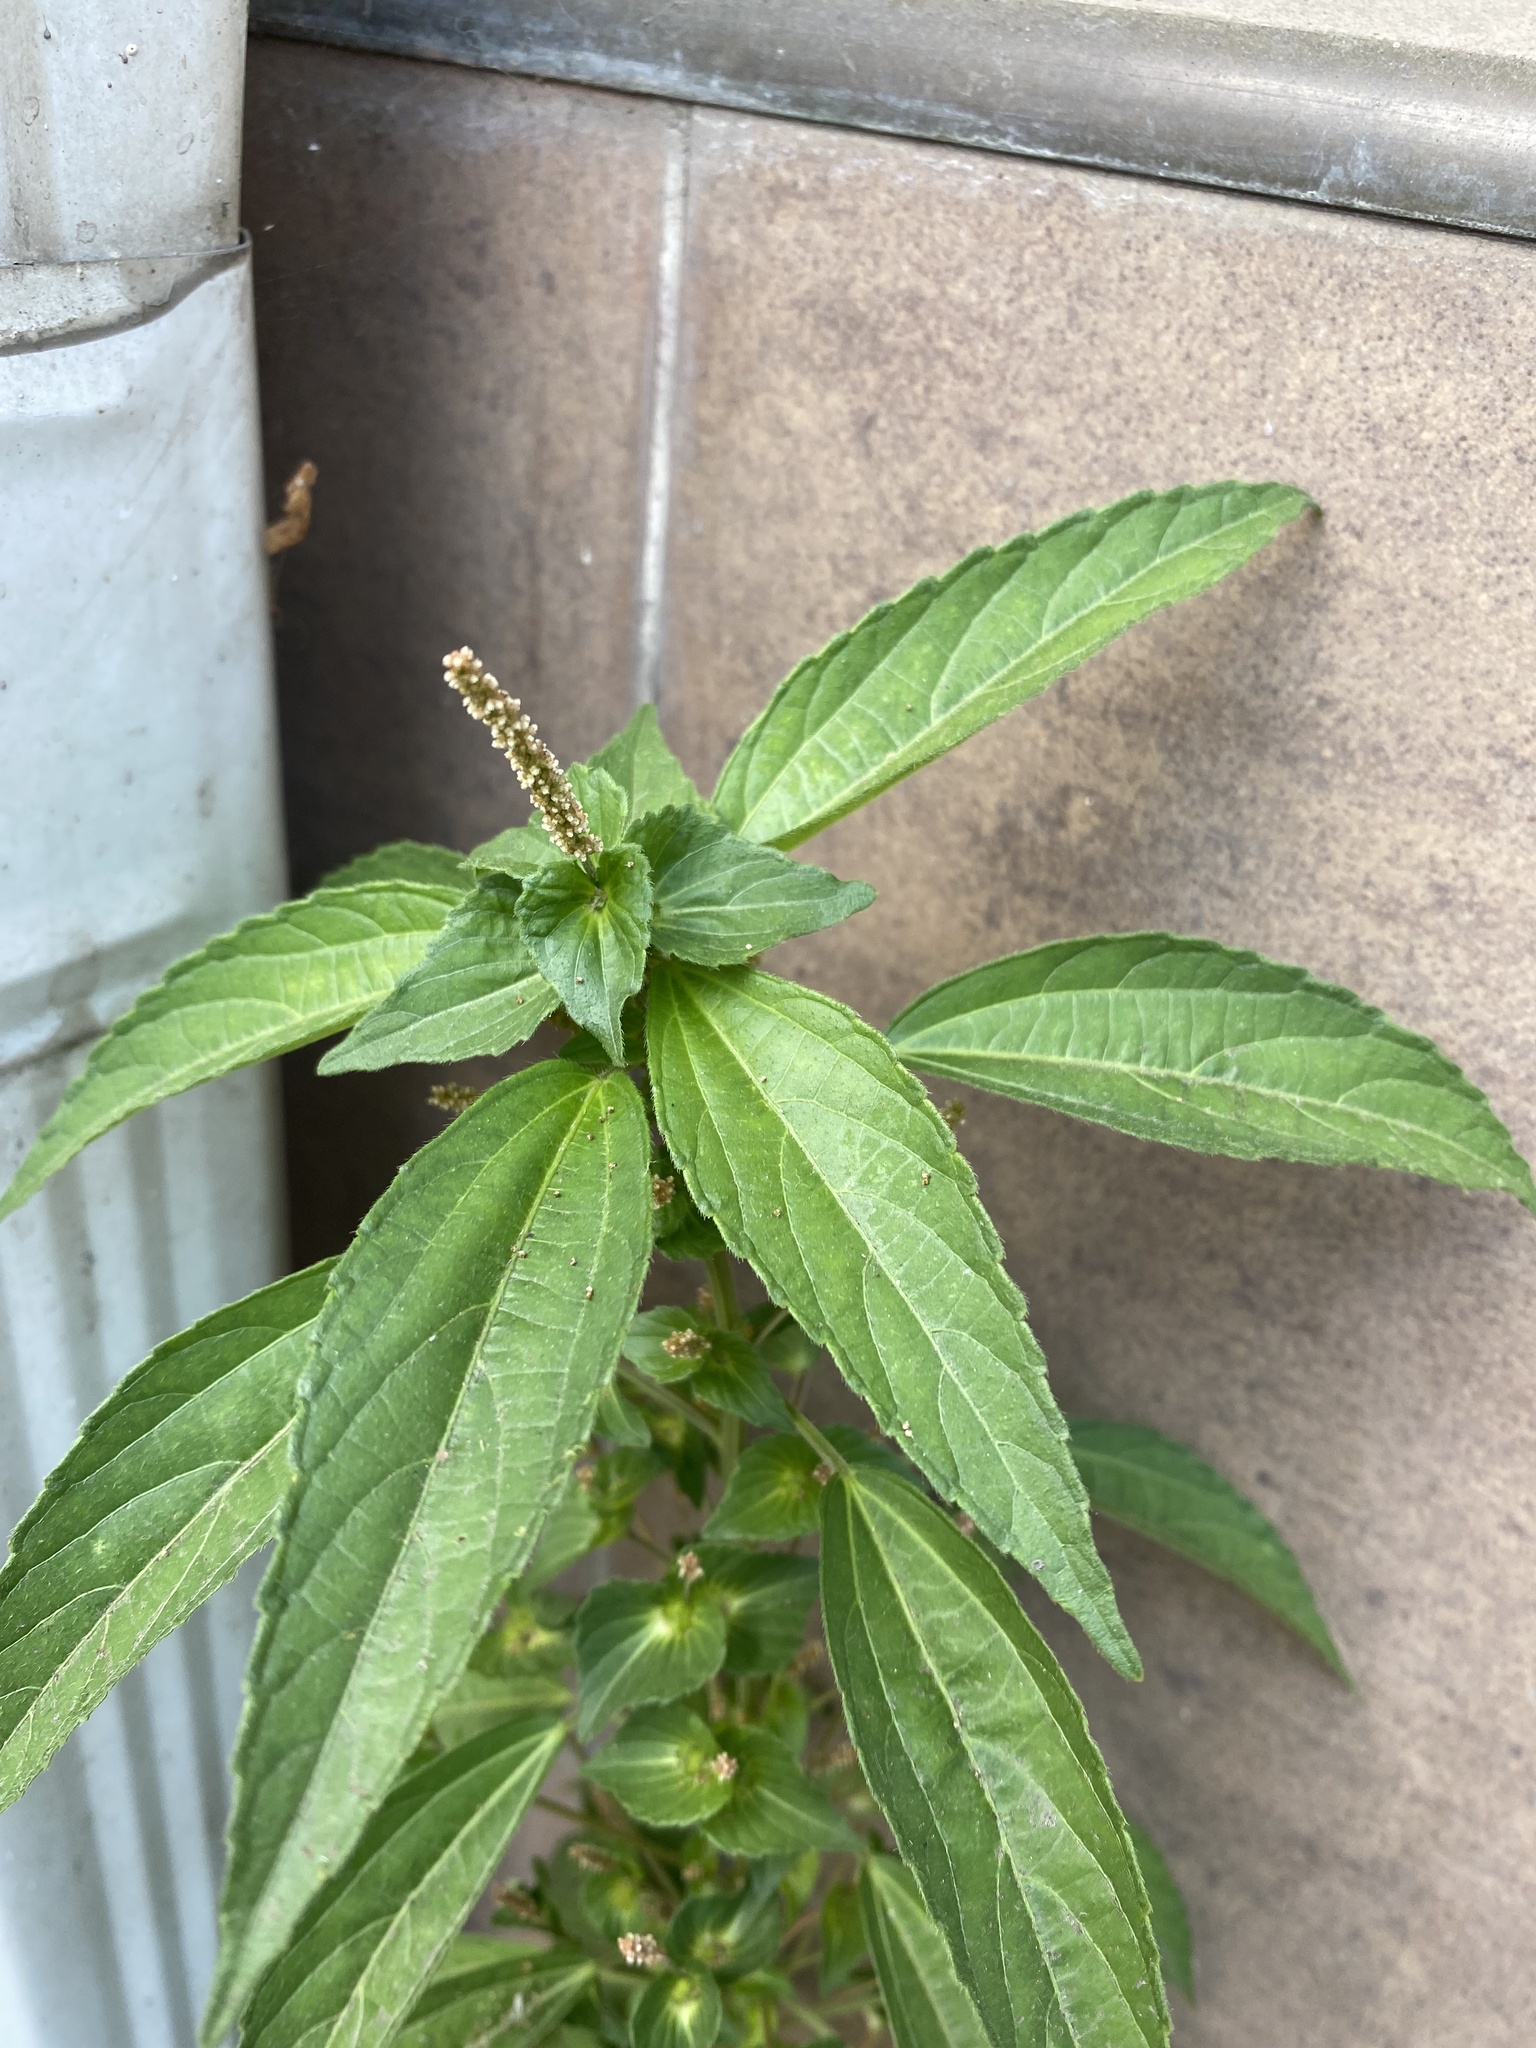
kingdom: Plantae
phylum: Tracheophyta
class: Magnoliopsida
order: Malpighiales
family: Euphorbiaceae
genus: Acalypha
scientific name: Acalypha australis
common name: Asian copperleaf
